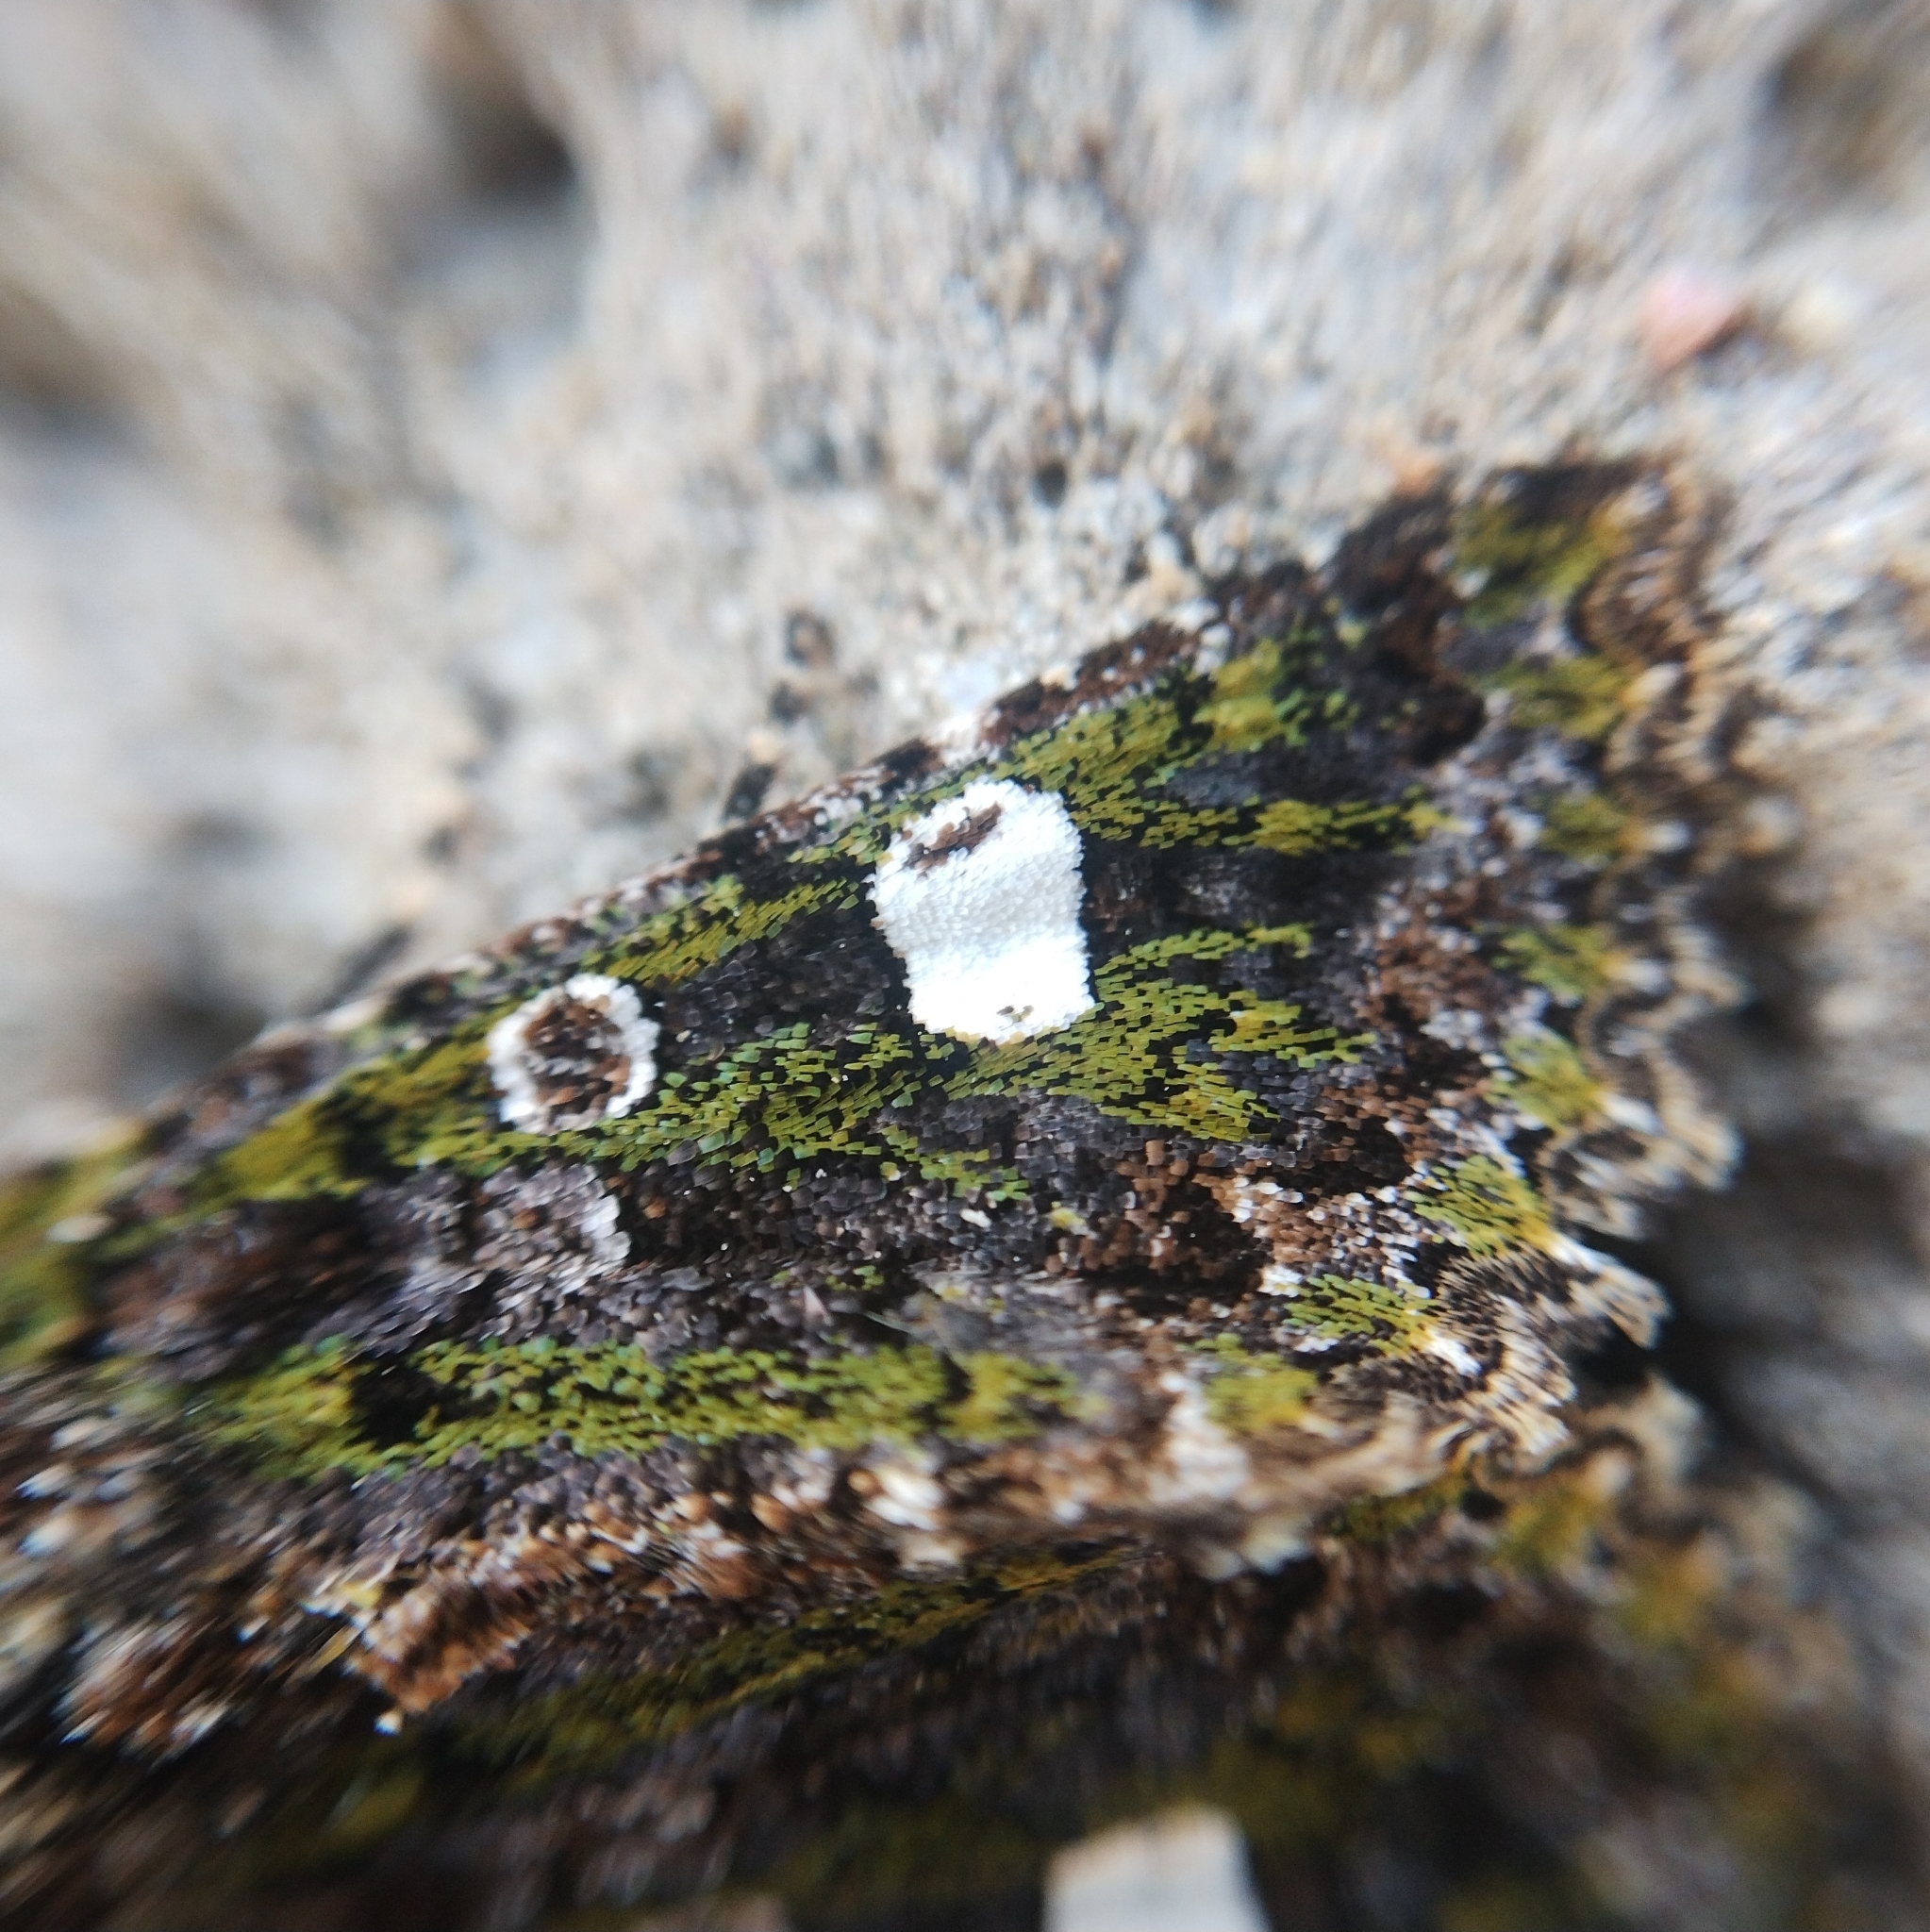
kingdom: Animalia
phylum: Arthropoda
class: Insecta
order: Lepidoptera
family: Noctuidae
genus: Valeria
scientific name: Valeria oleagina
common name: Green-brindled dot
